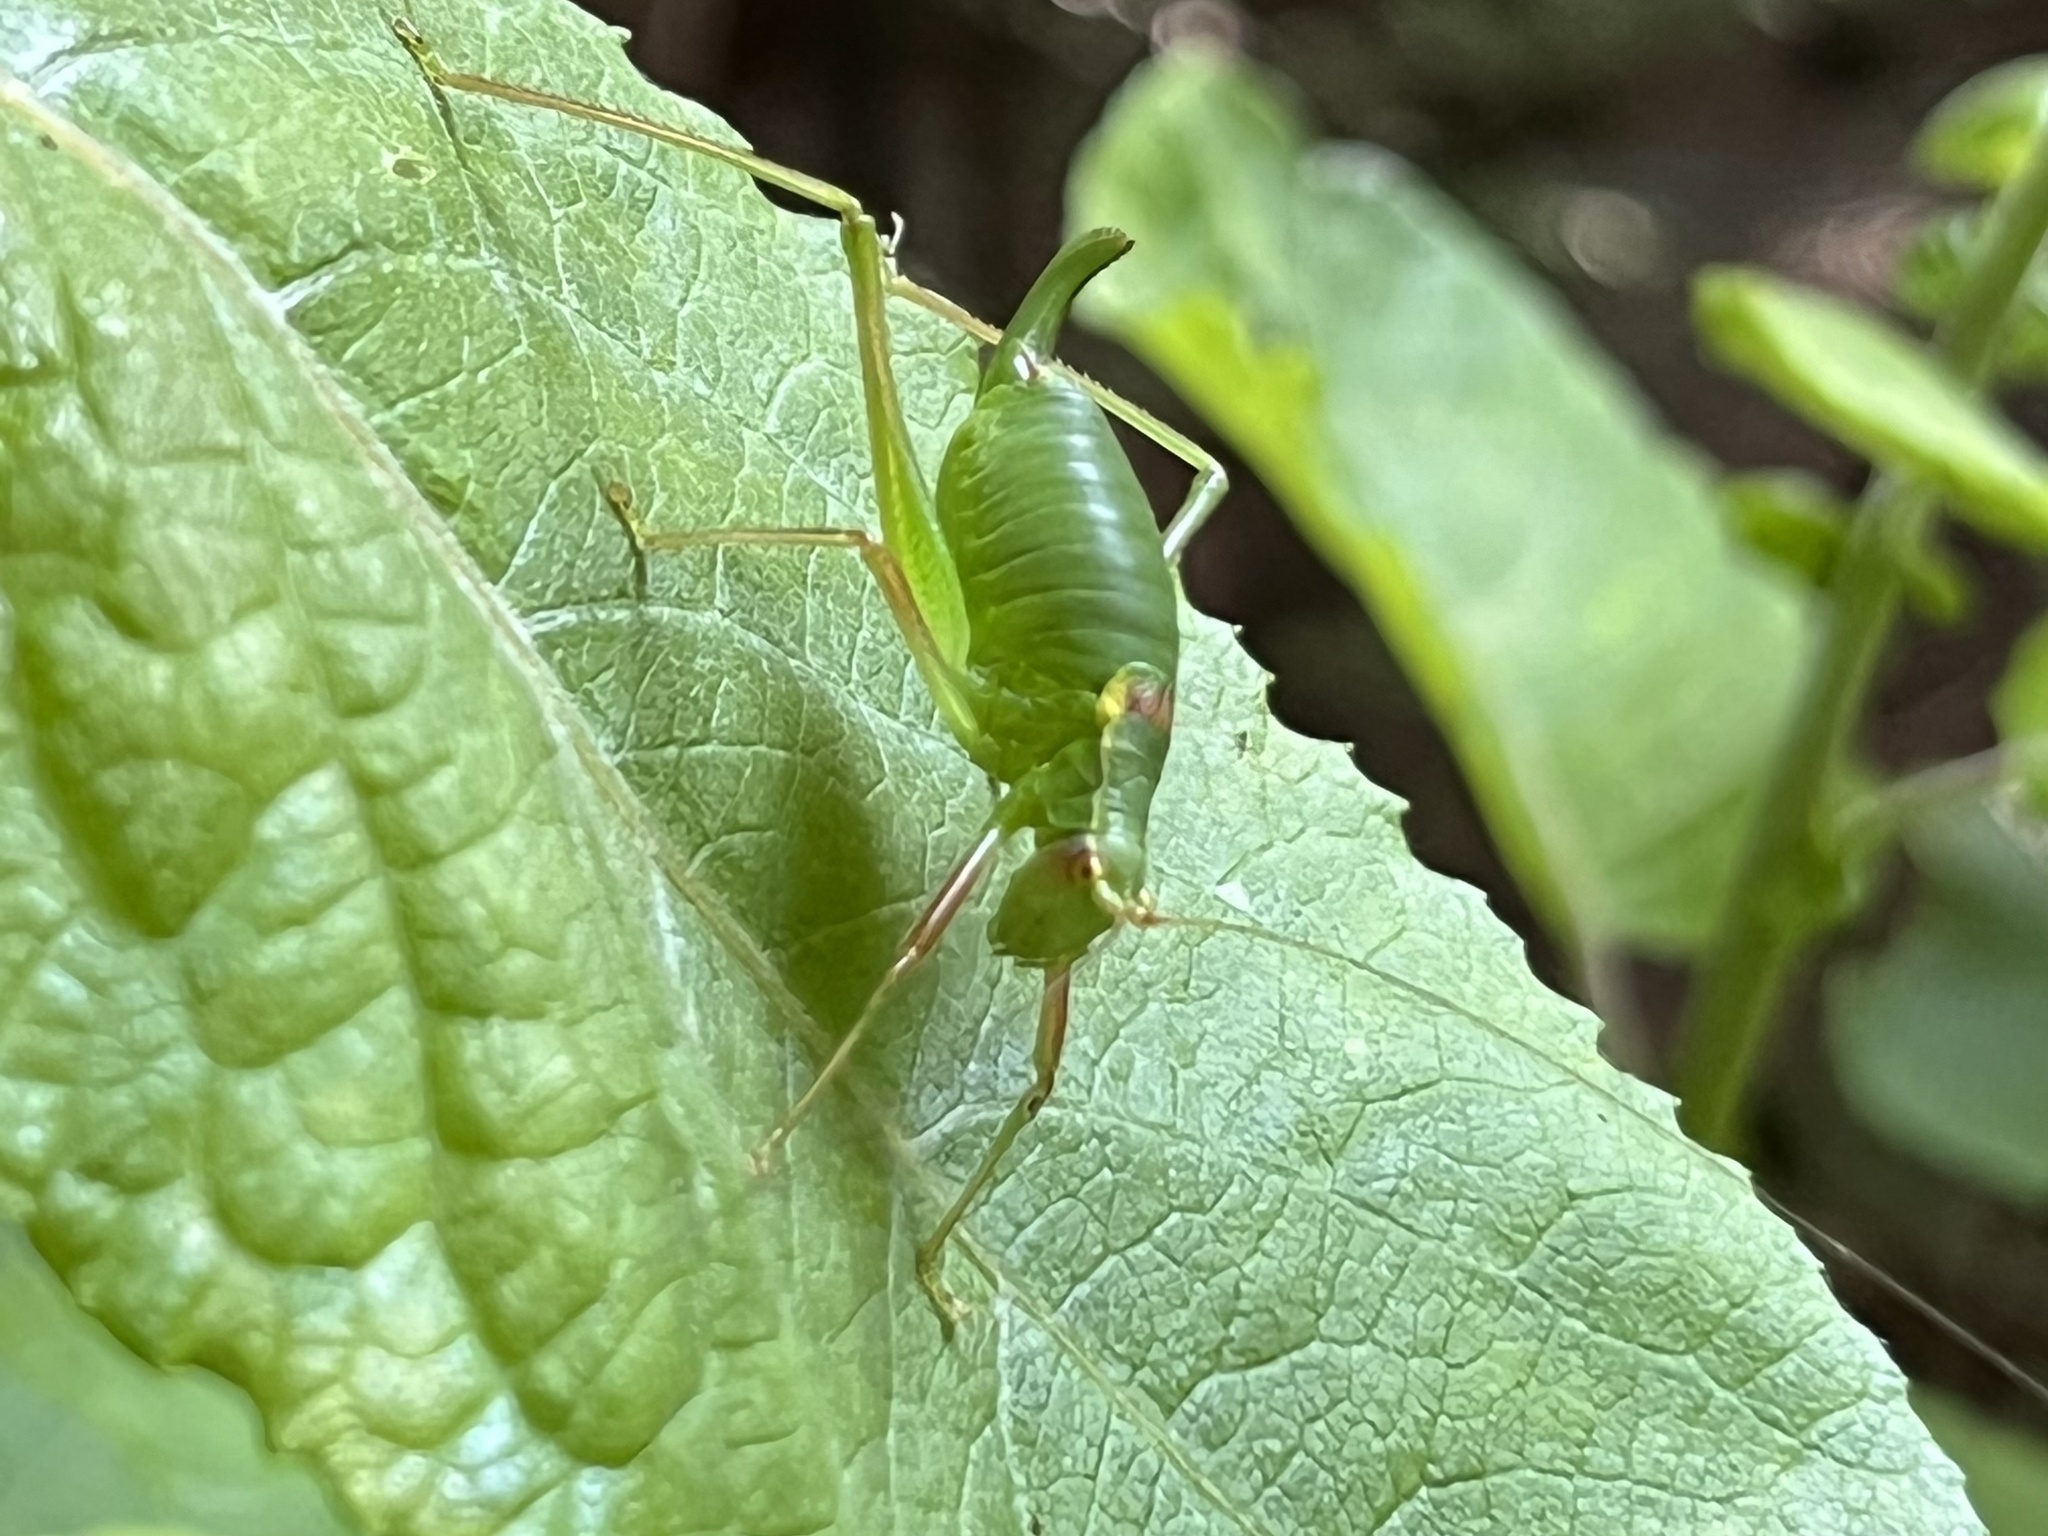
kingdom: Animalia
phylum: Arthropoda
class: Insecta
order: Orthoptera
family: Tettigoniidae
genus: Barbitistes
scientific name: Barbitistes serricauda
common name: Saw-tailed bush-cricket
